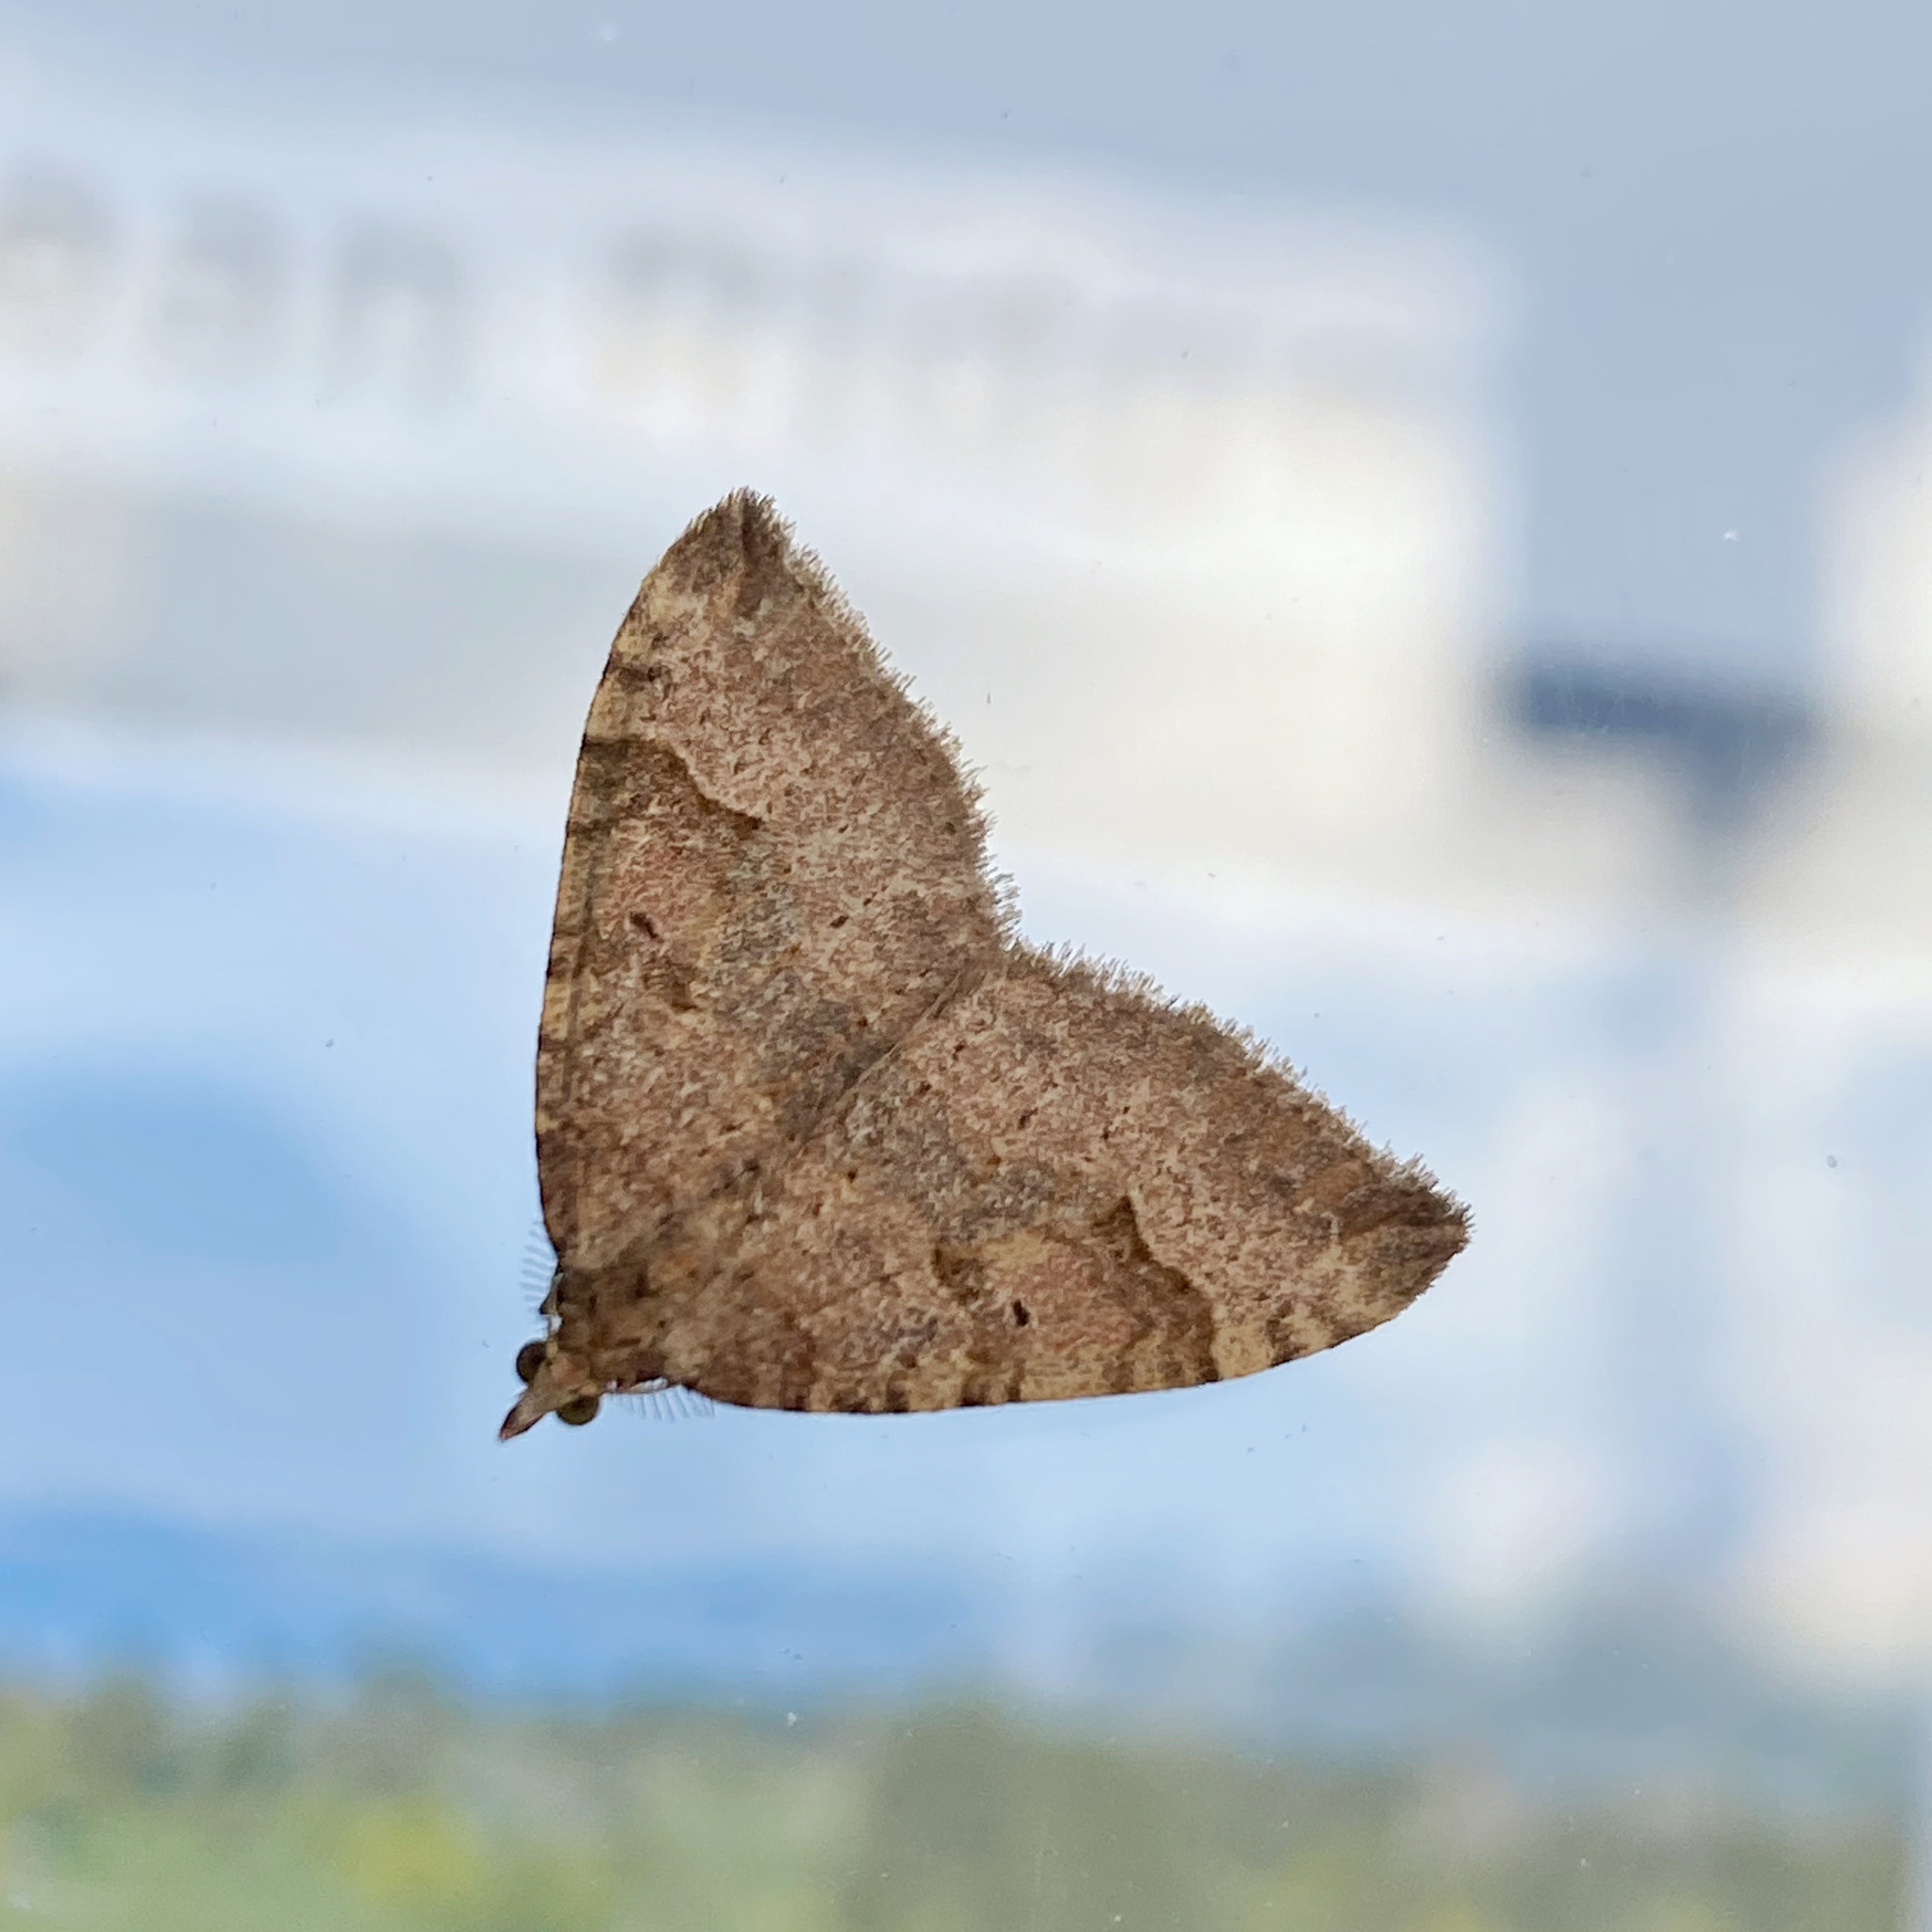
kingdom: Animalia
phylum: Arthropoda
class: Insecta
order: Lepidoptera
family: Geometridae
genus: Epyaxa
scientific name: Epyaxa rosearia
